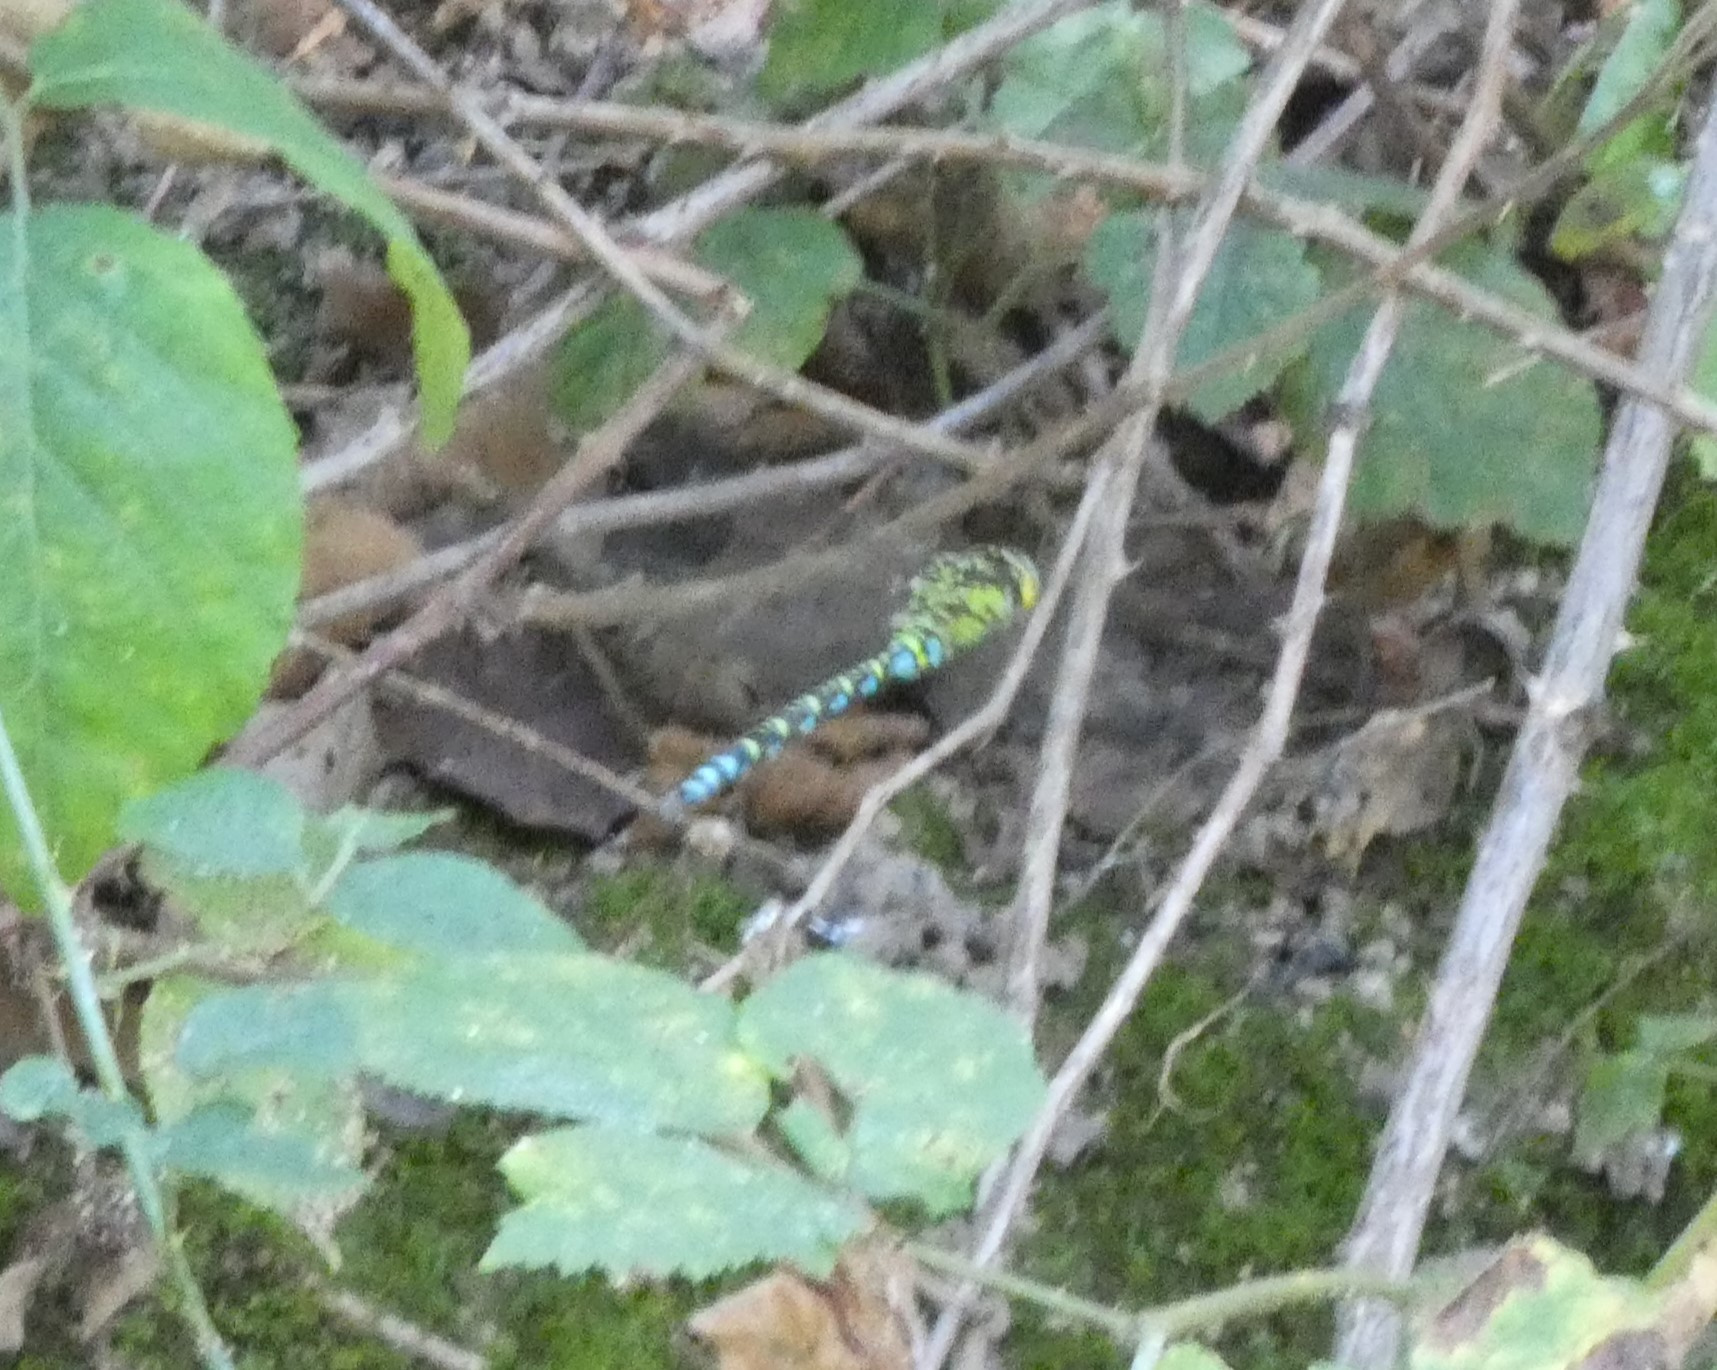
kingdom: Animalia
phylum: Arthropoda
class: Insecta
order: Odonata
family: Aeshnidae
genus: Aeshna
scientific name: Aeshna cyanea
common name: Southern hawker
